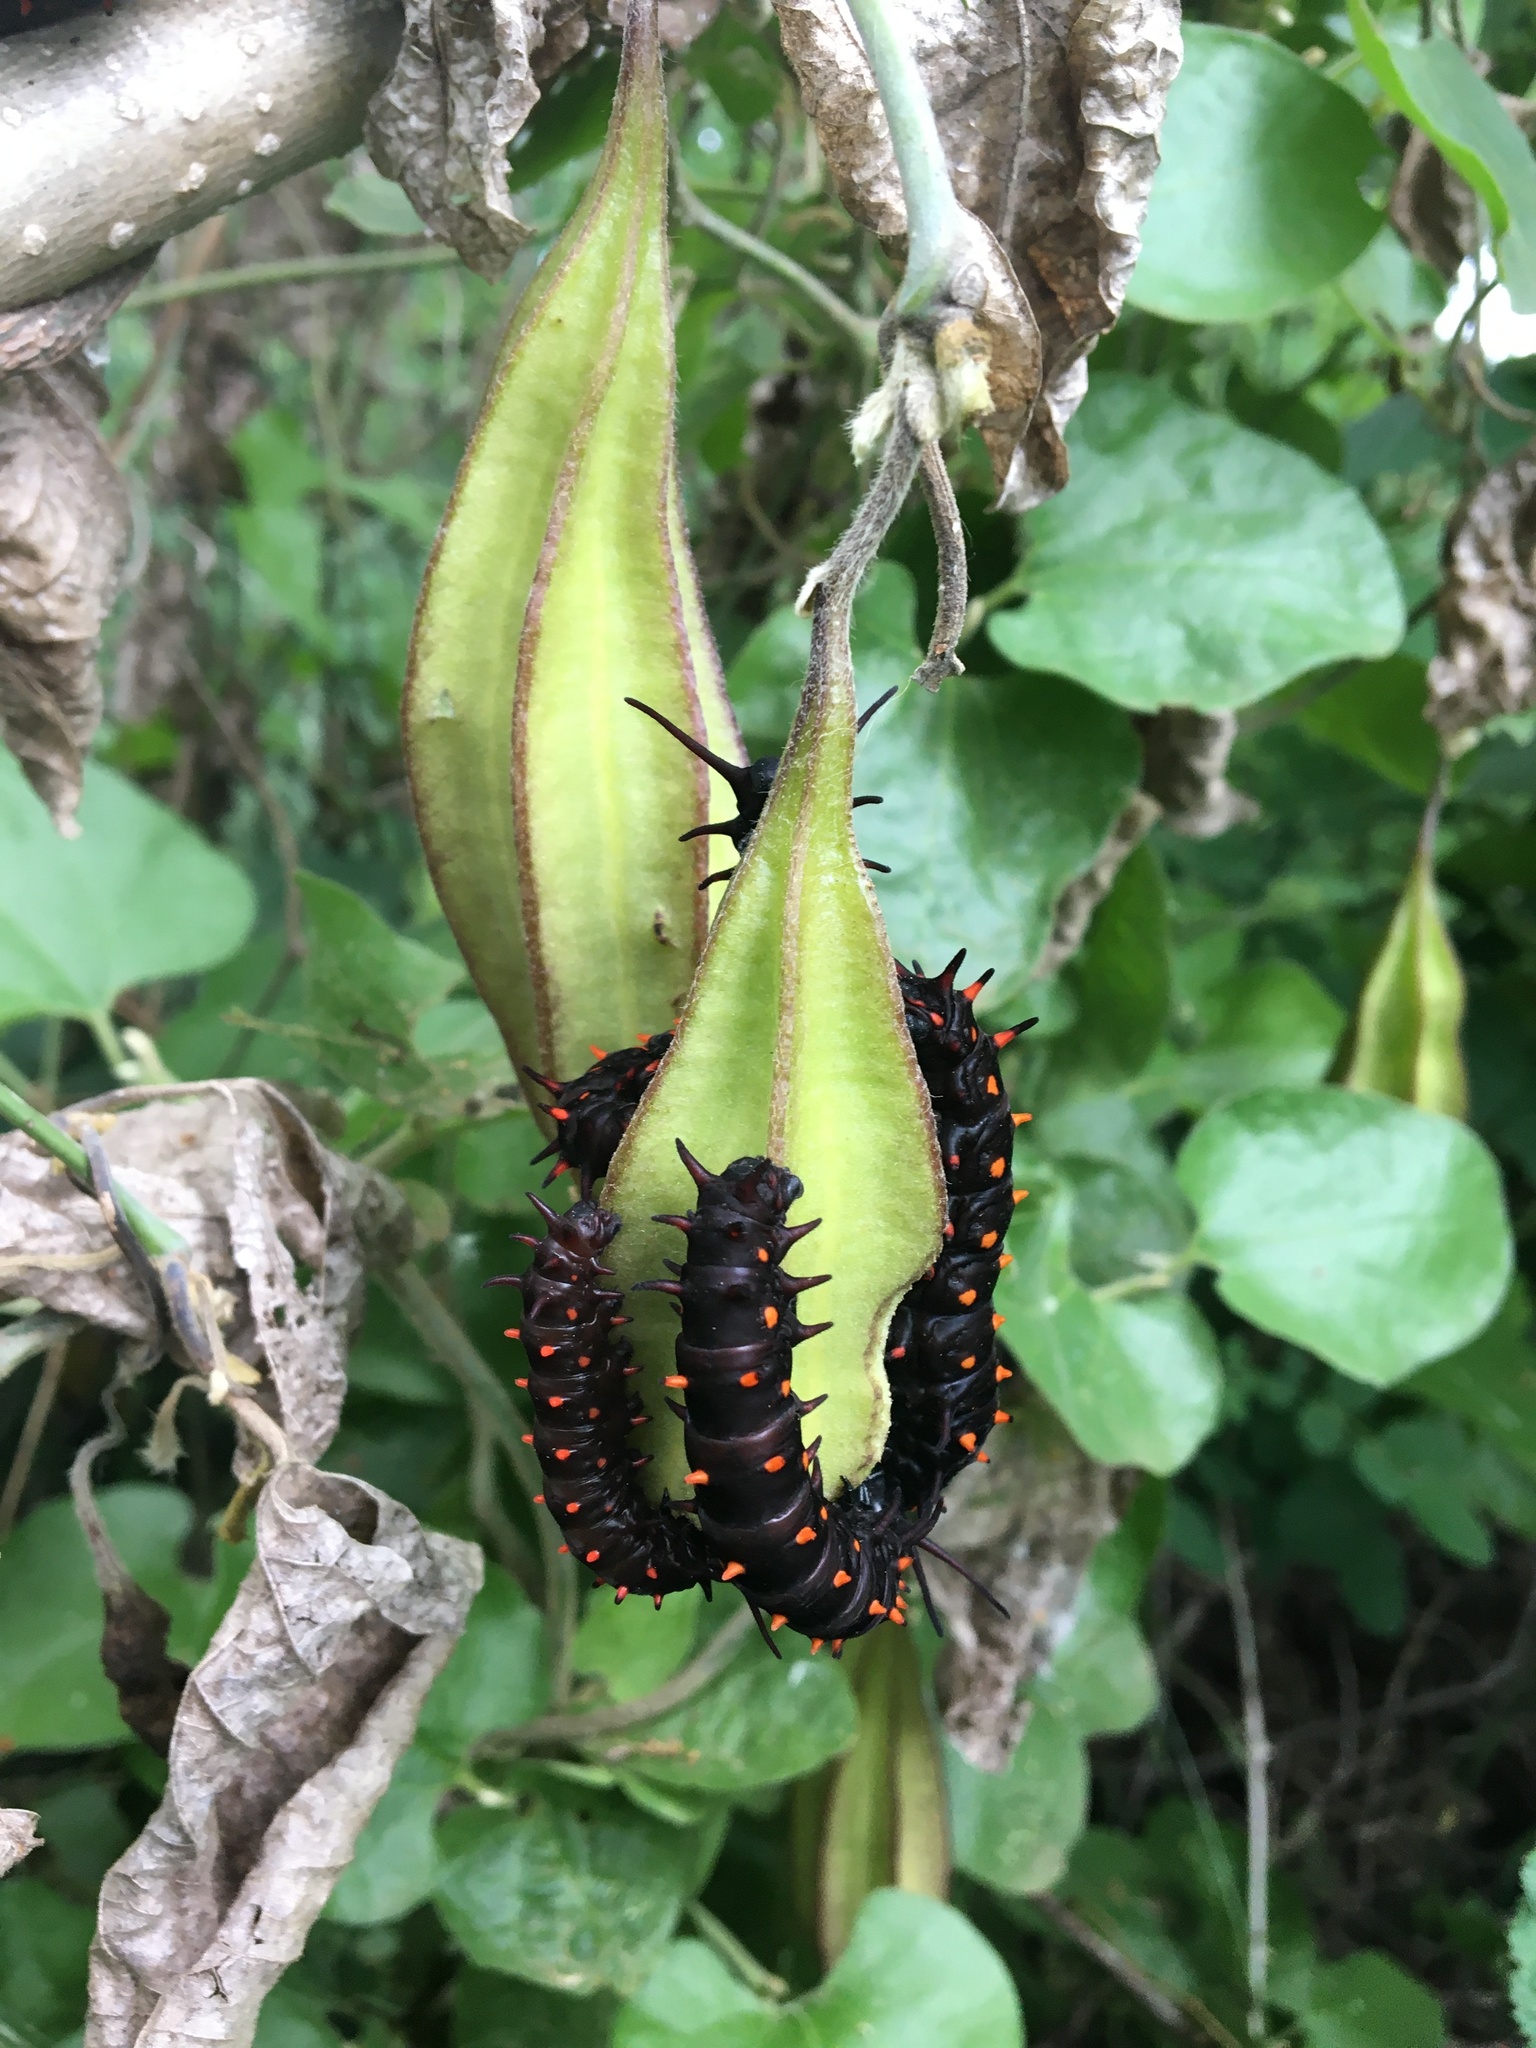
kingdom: Plantae
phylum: Tracheophyta
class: Magnoliopsida
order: Piperales
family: Aristolochiaceae
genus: Isotrema
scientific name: Isotrema californicum
